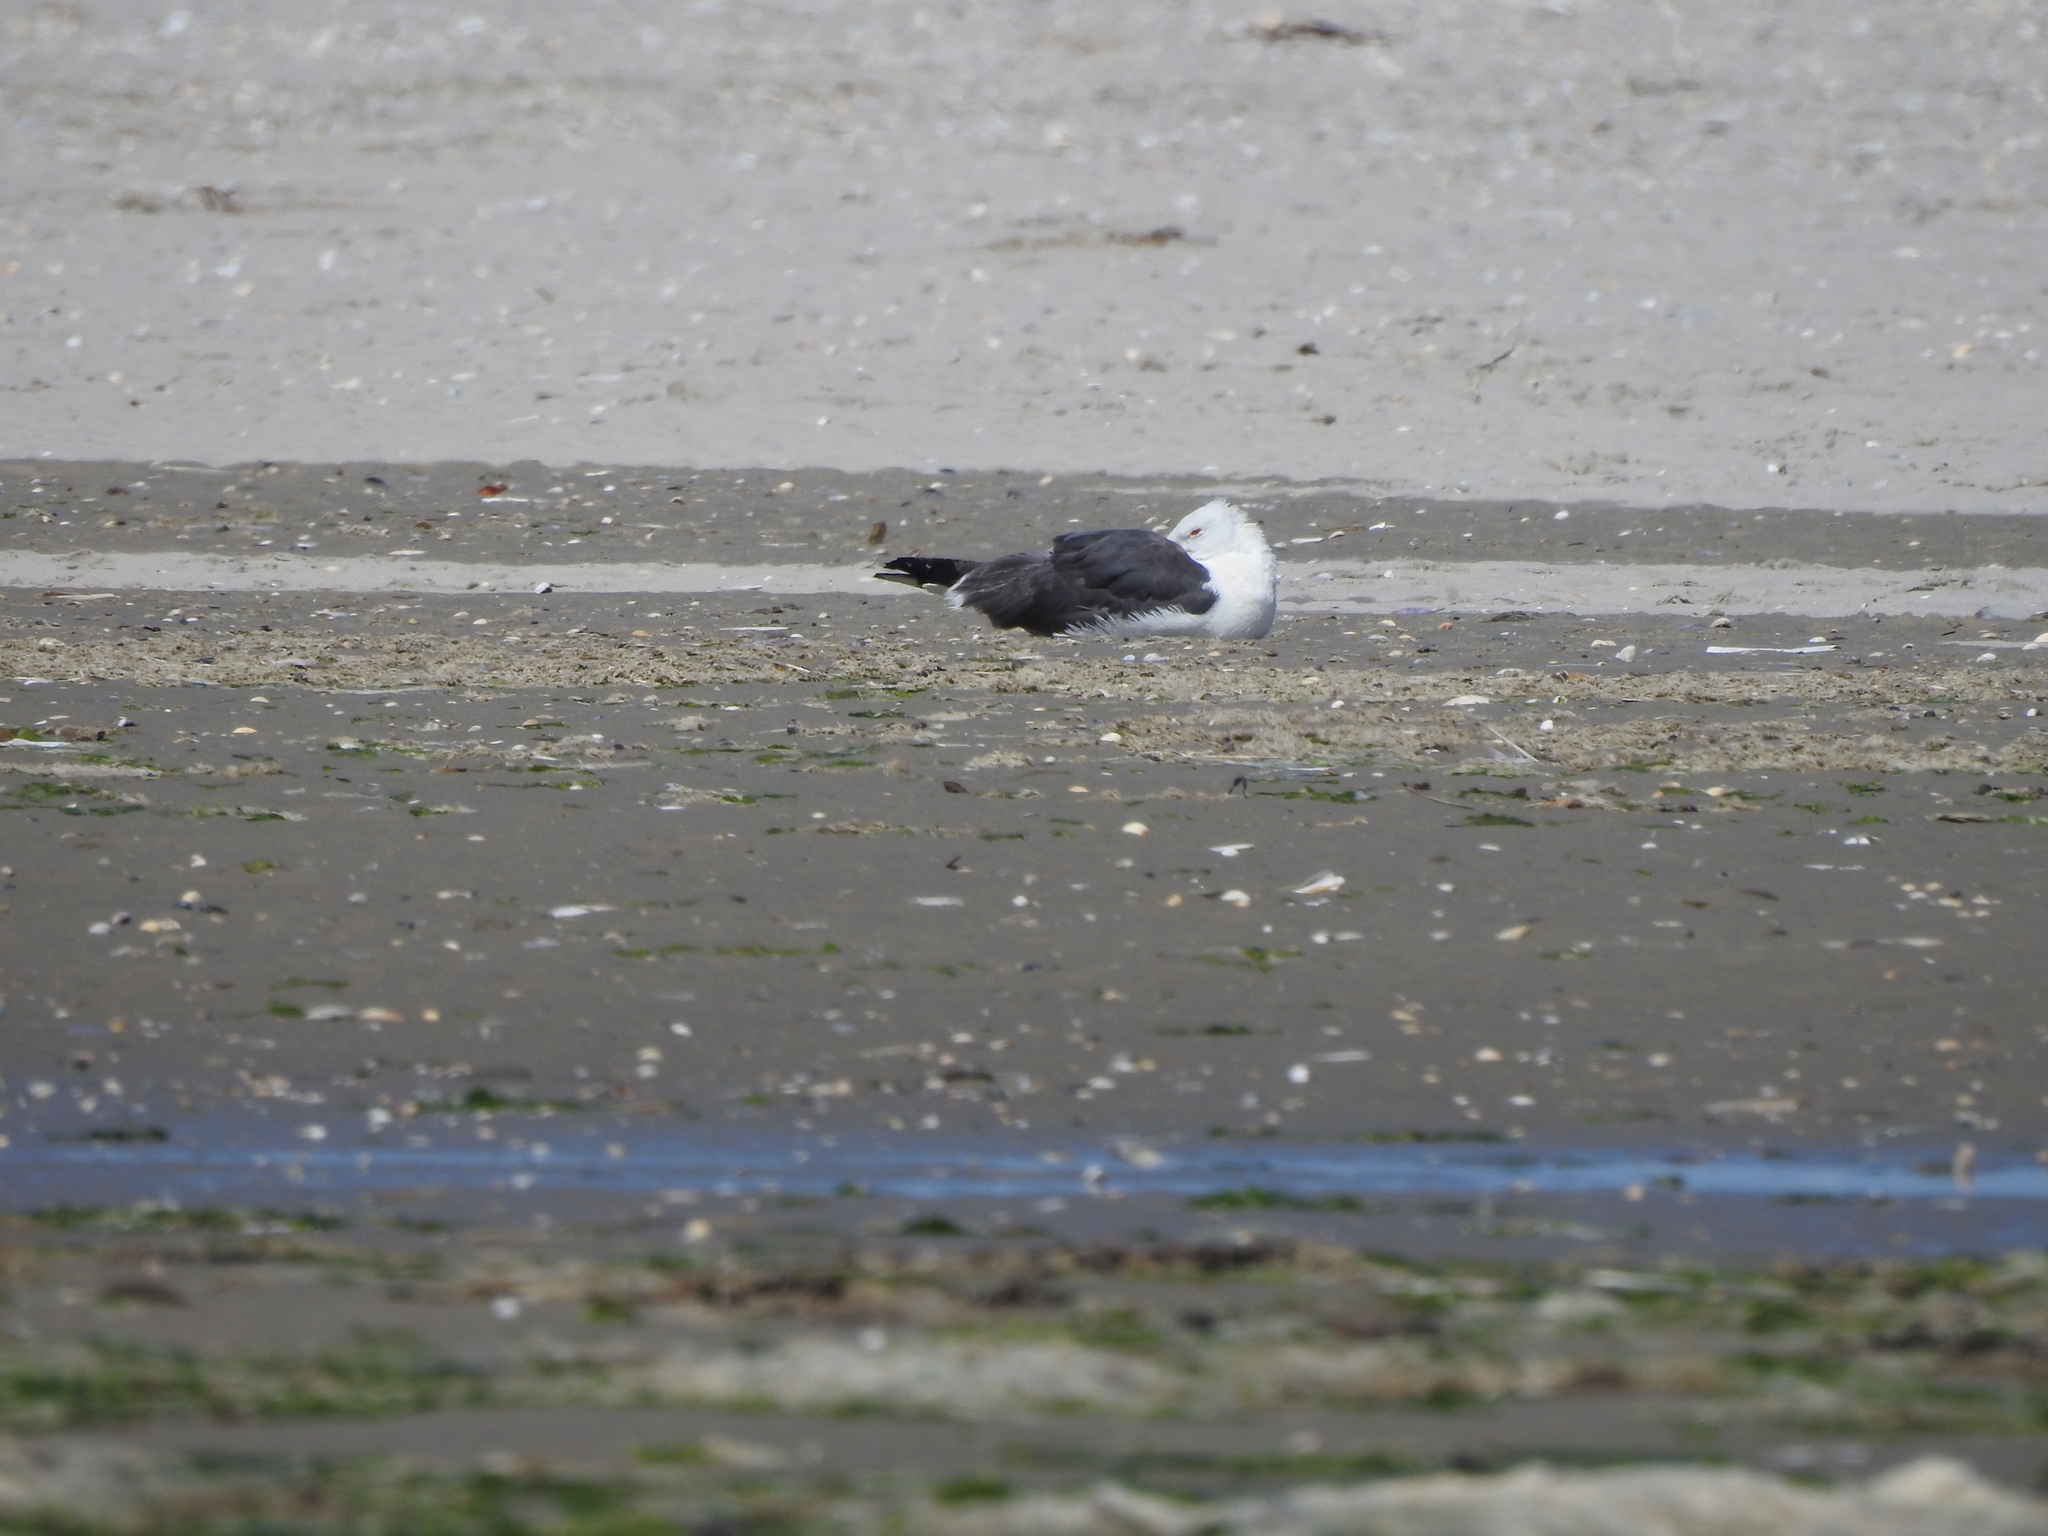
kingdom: Animalia
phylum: Chordata
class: Aves
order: Charadriiformes
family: Laridae
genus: Larus
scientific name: Larus marinus
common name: Great black-backed gull
